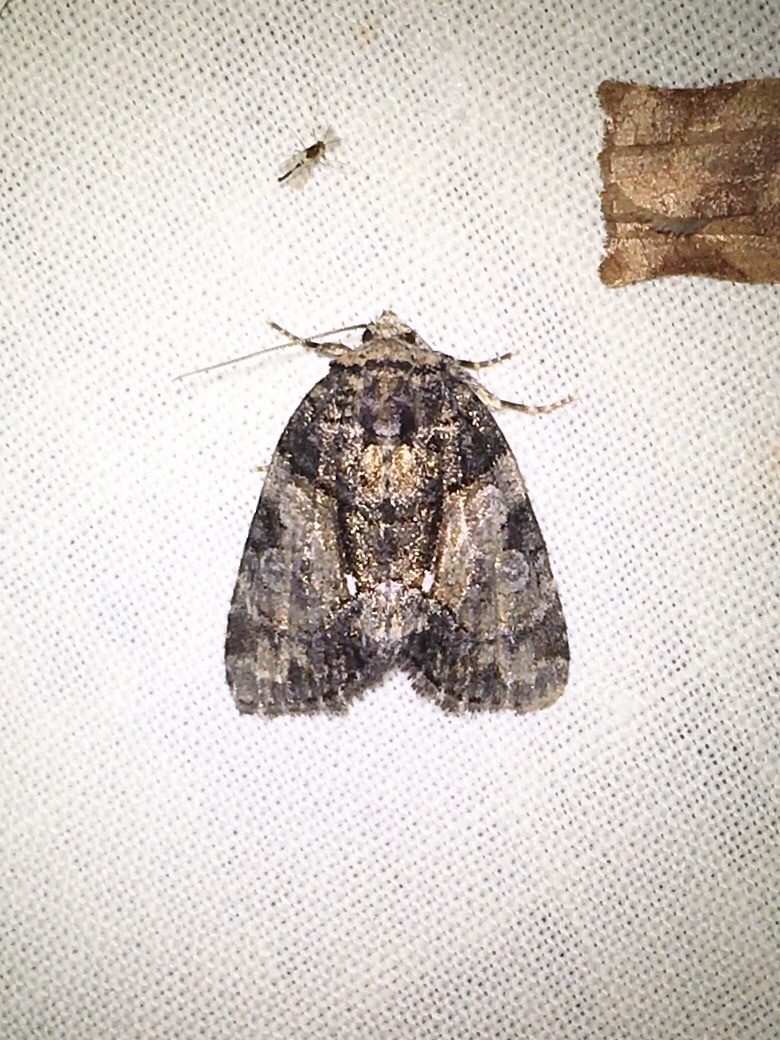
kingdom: Animalia
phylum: Arthropoda
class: Insecta
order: Lepidoptera
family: Noctuidae
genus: Chytonix
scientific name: Chytonix palliatricula
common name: Cloaked marvel
